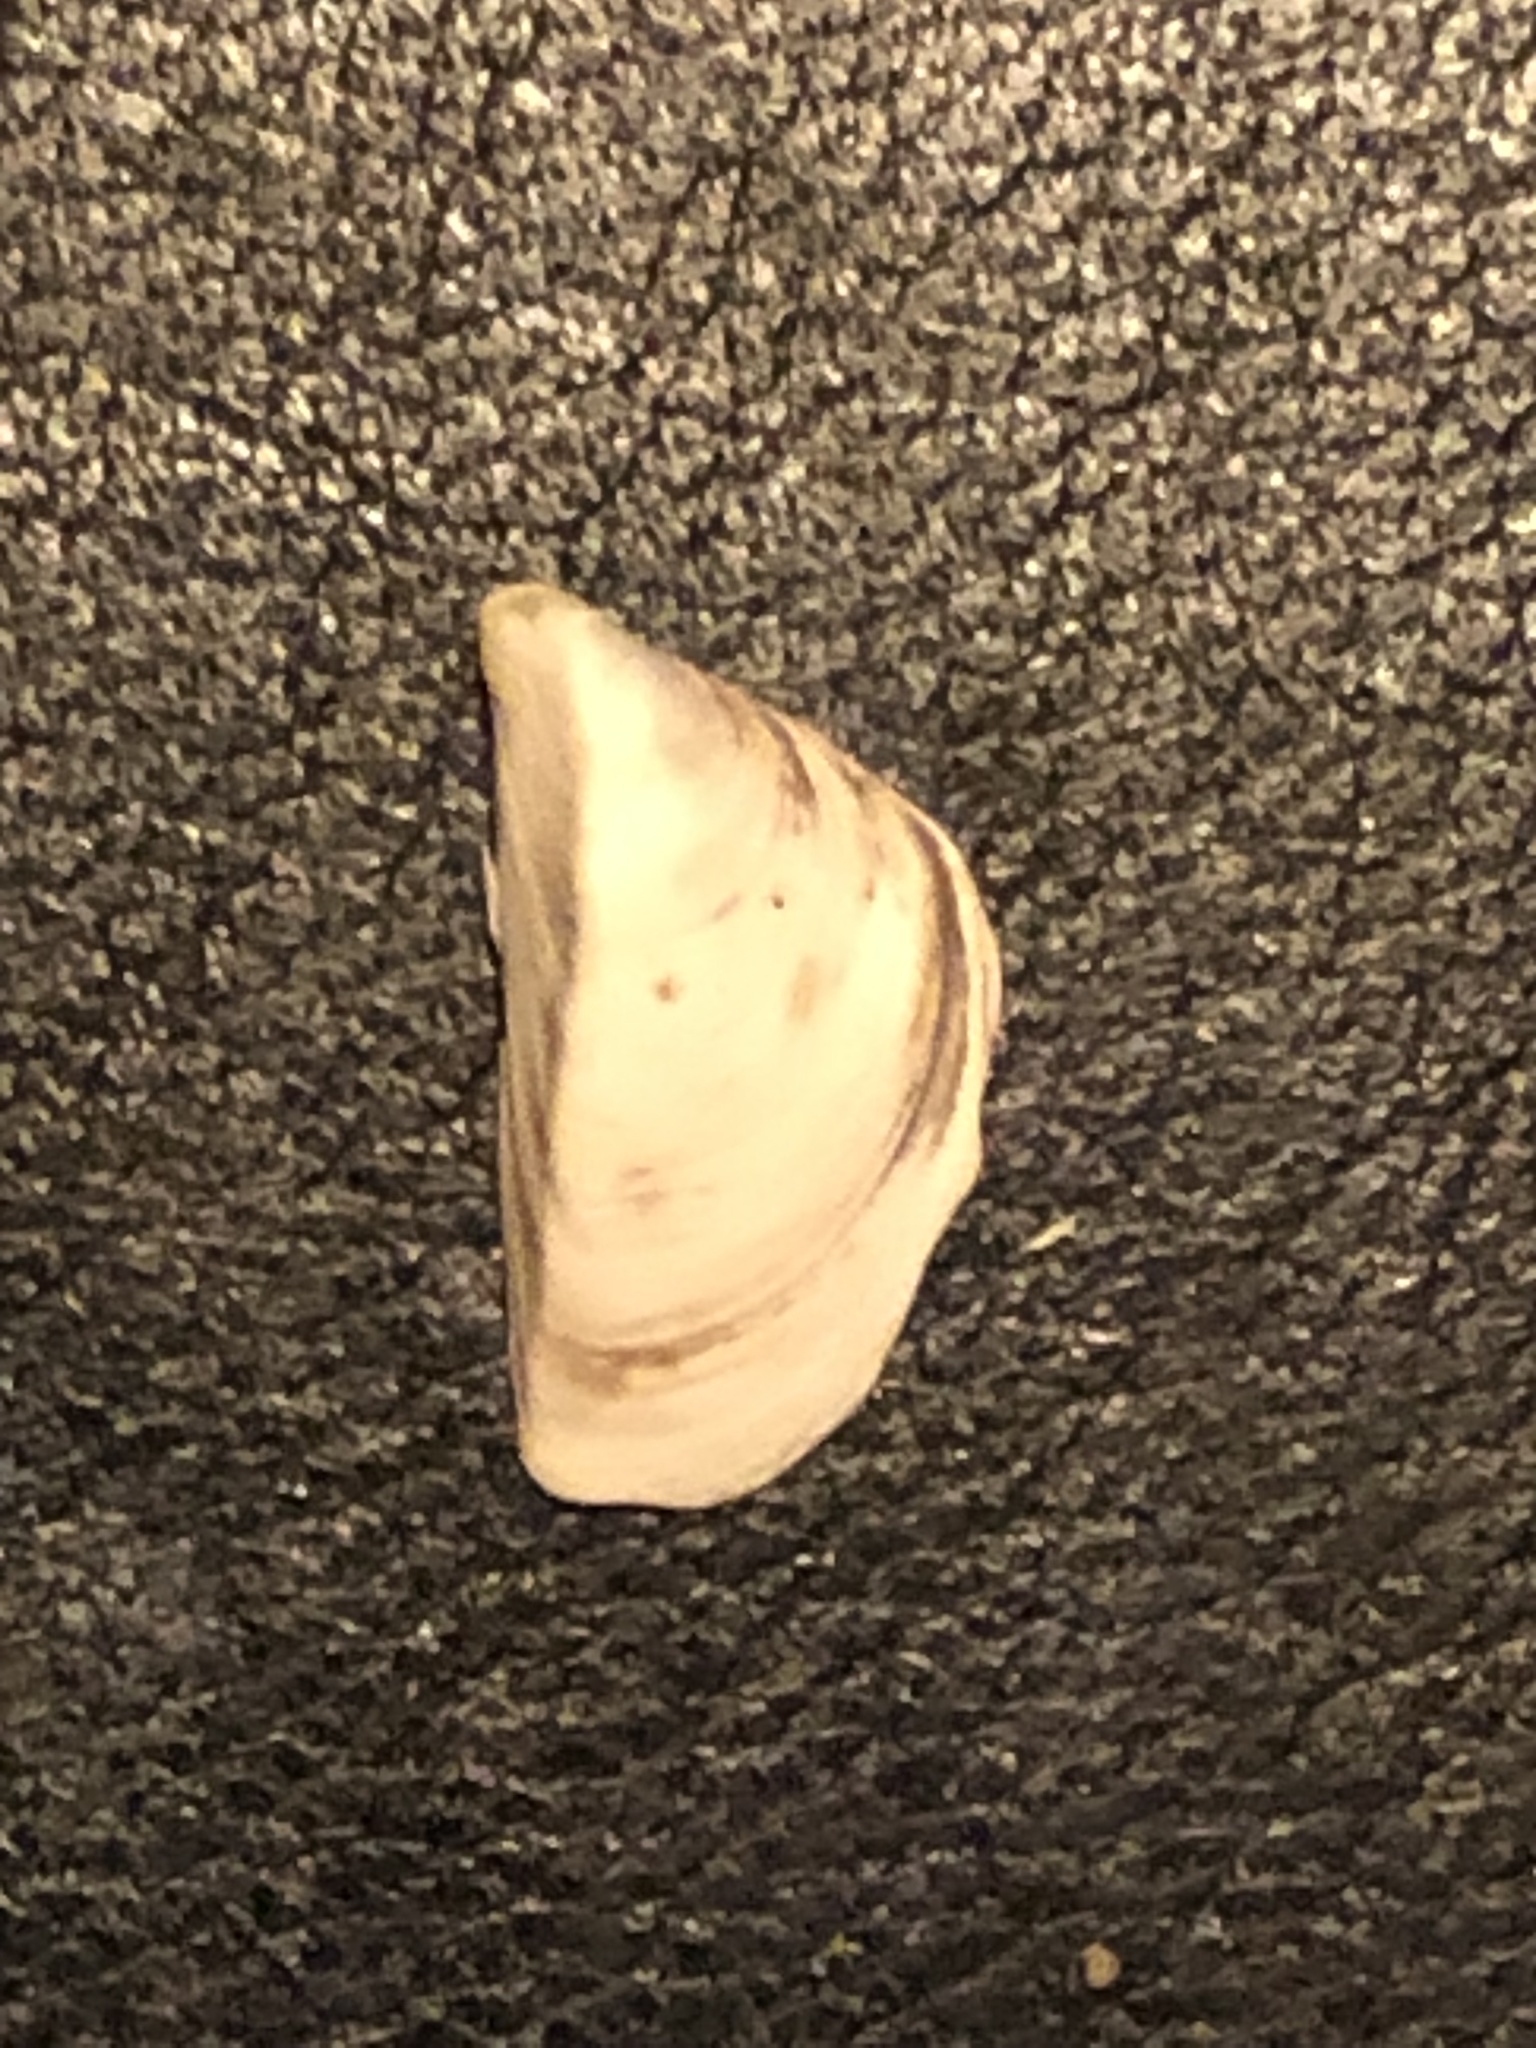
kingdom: Animalia
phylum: Mollusca
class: Bivalvia
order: Myida
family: Dreissenidae
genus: Dreissena
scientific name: Dreissena polymorpha
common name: Zebra mussel
